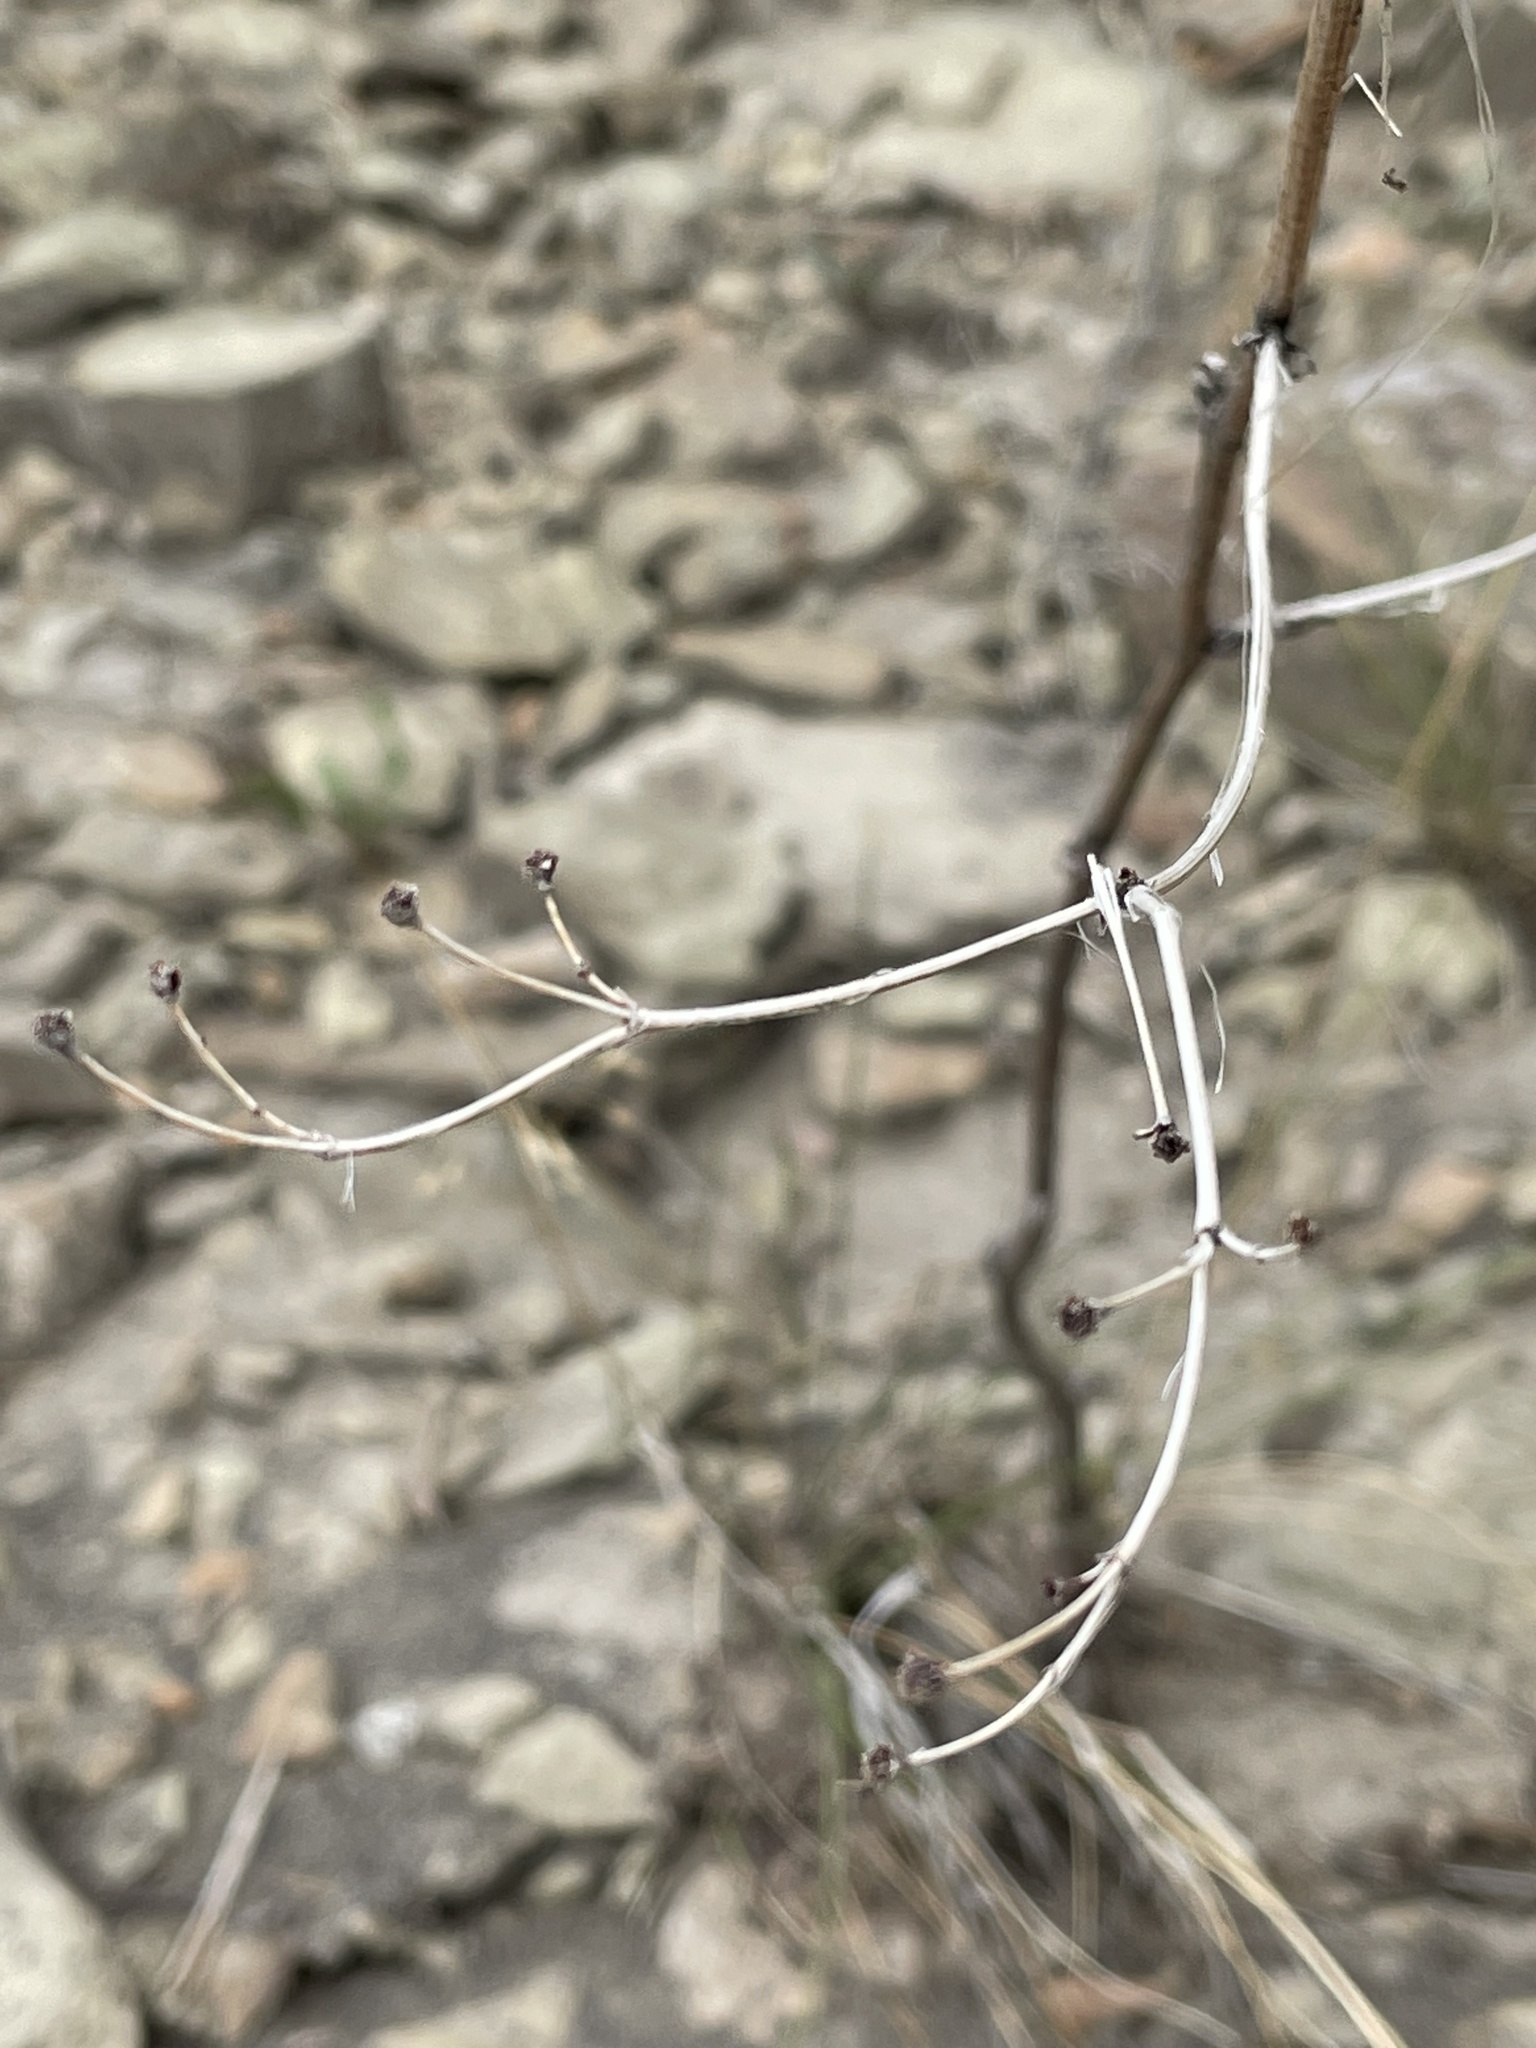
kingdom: Plantae
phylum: Tracheophyta
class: Magnoliopsida
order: Caryophyllales
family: Polygonaceae
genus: Eriogonum
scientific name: Eriogonum alatum
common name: Winged eriogonum
